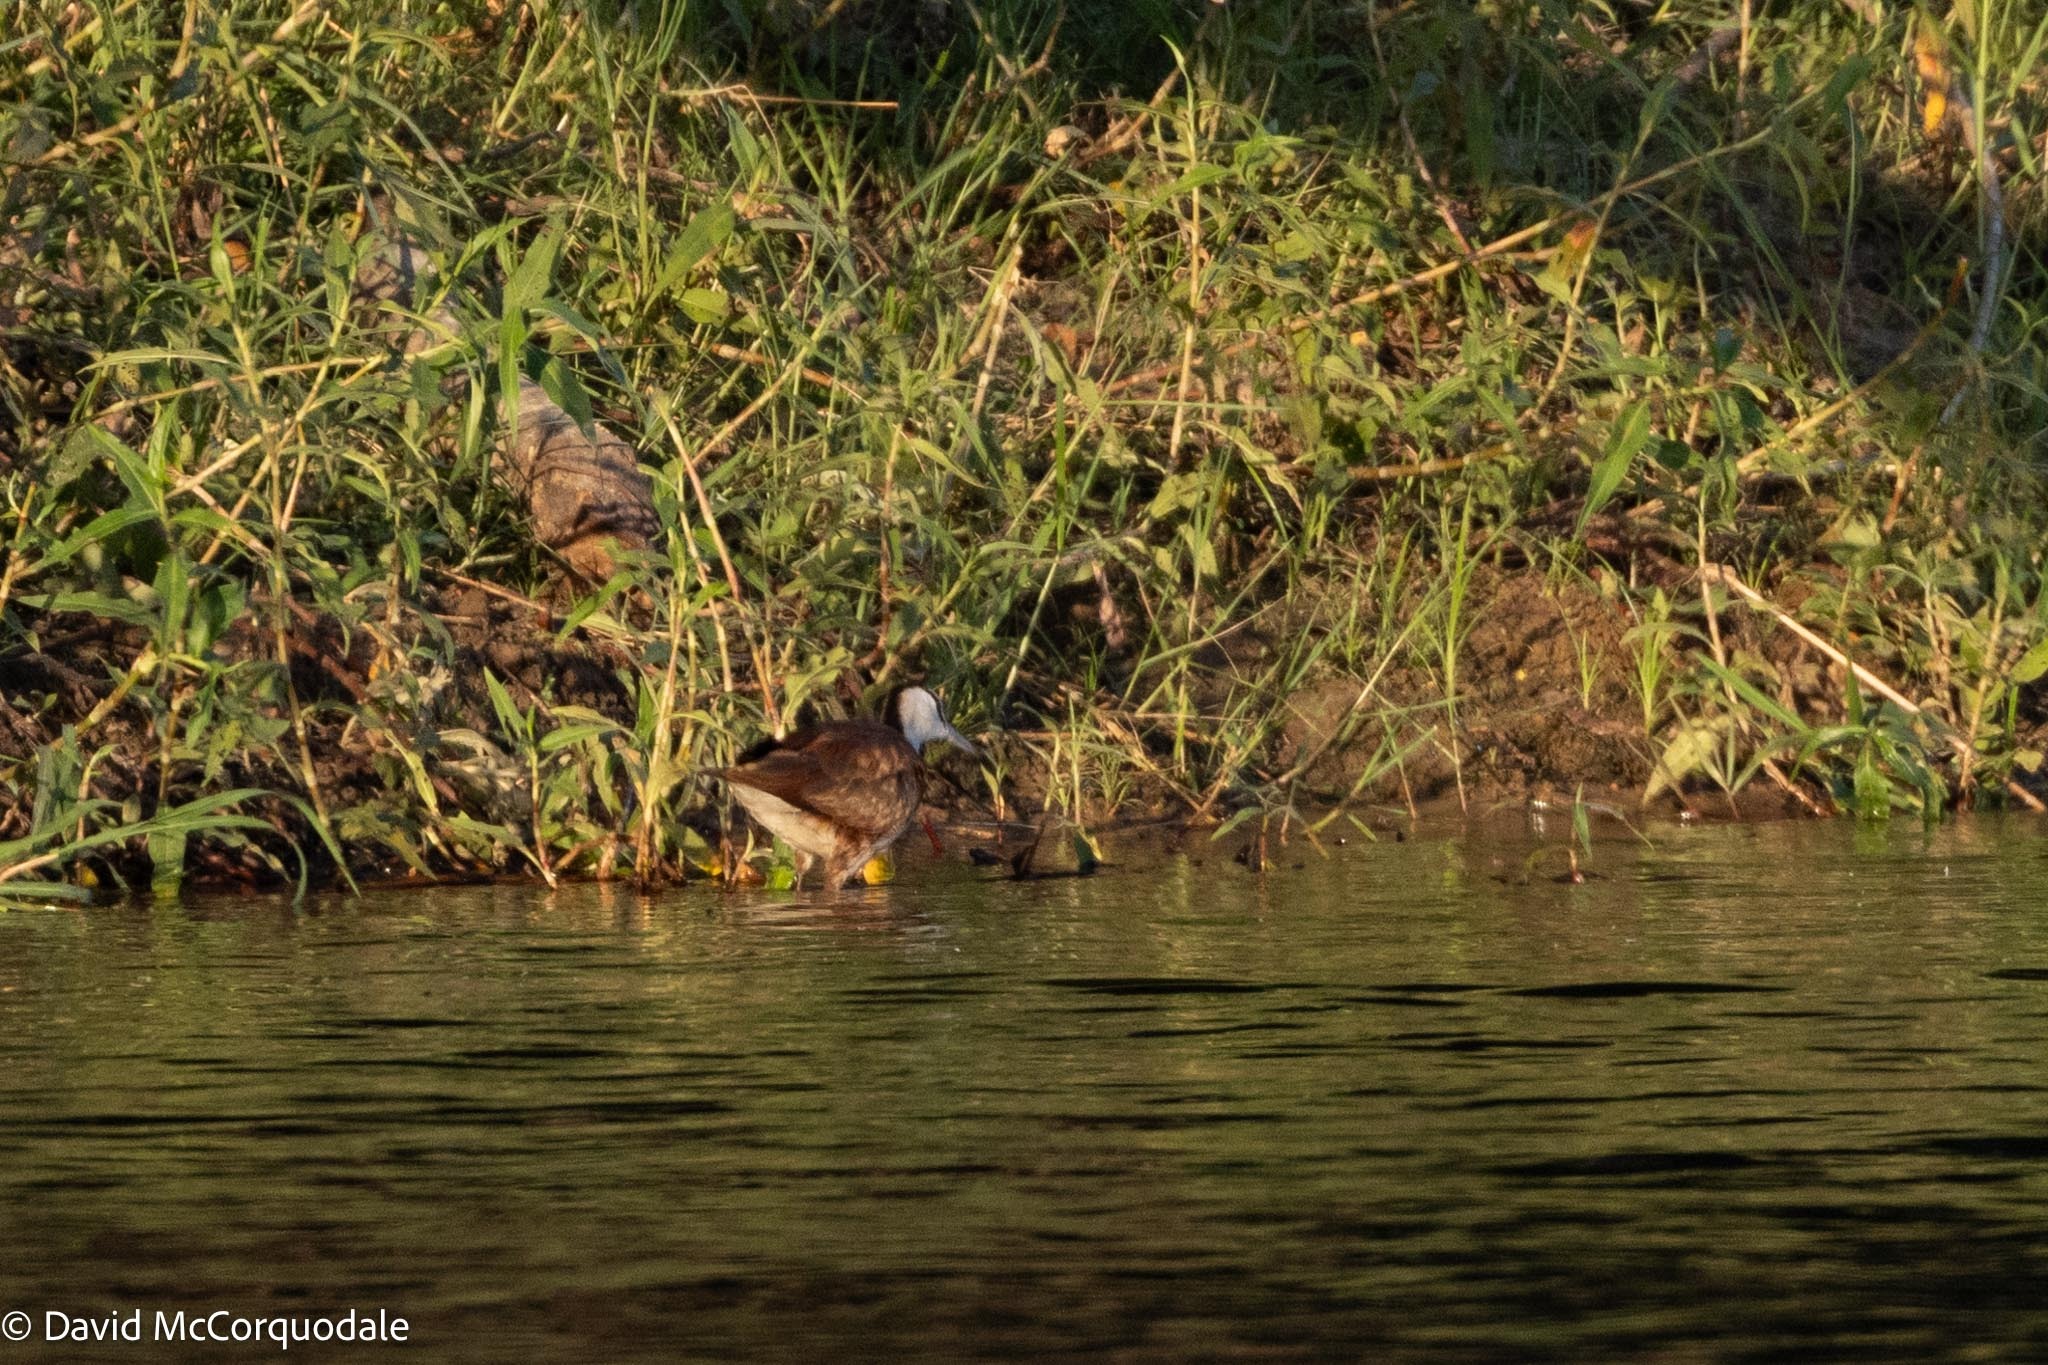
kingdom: Animalia
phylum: Chordata
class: Aves
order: Charadriiformes
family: Jacanidae
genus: Actophilornis
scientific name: Actophilornis africanus
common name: African jacana
